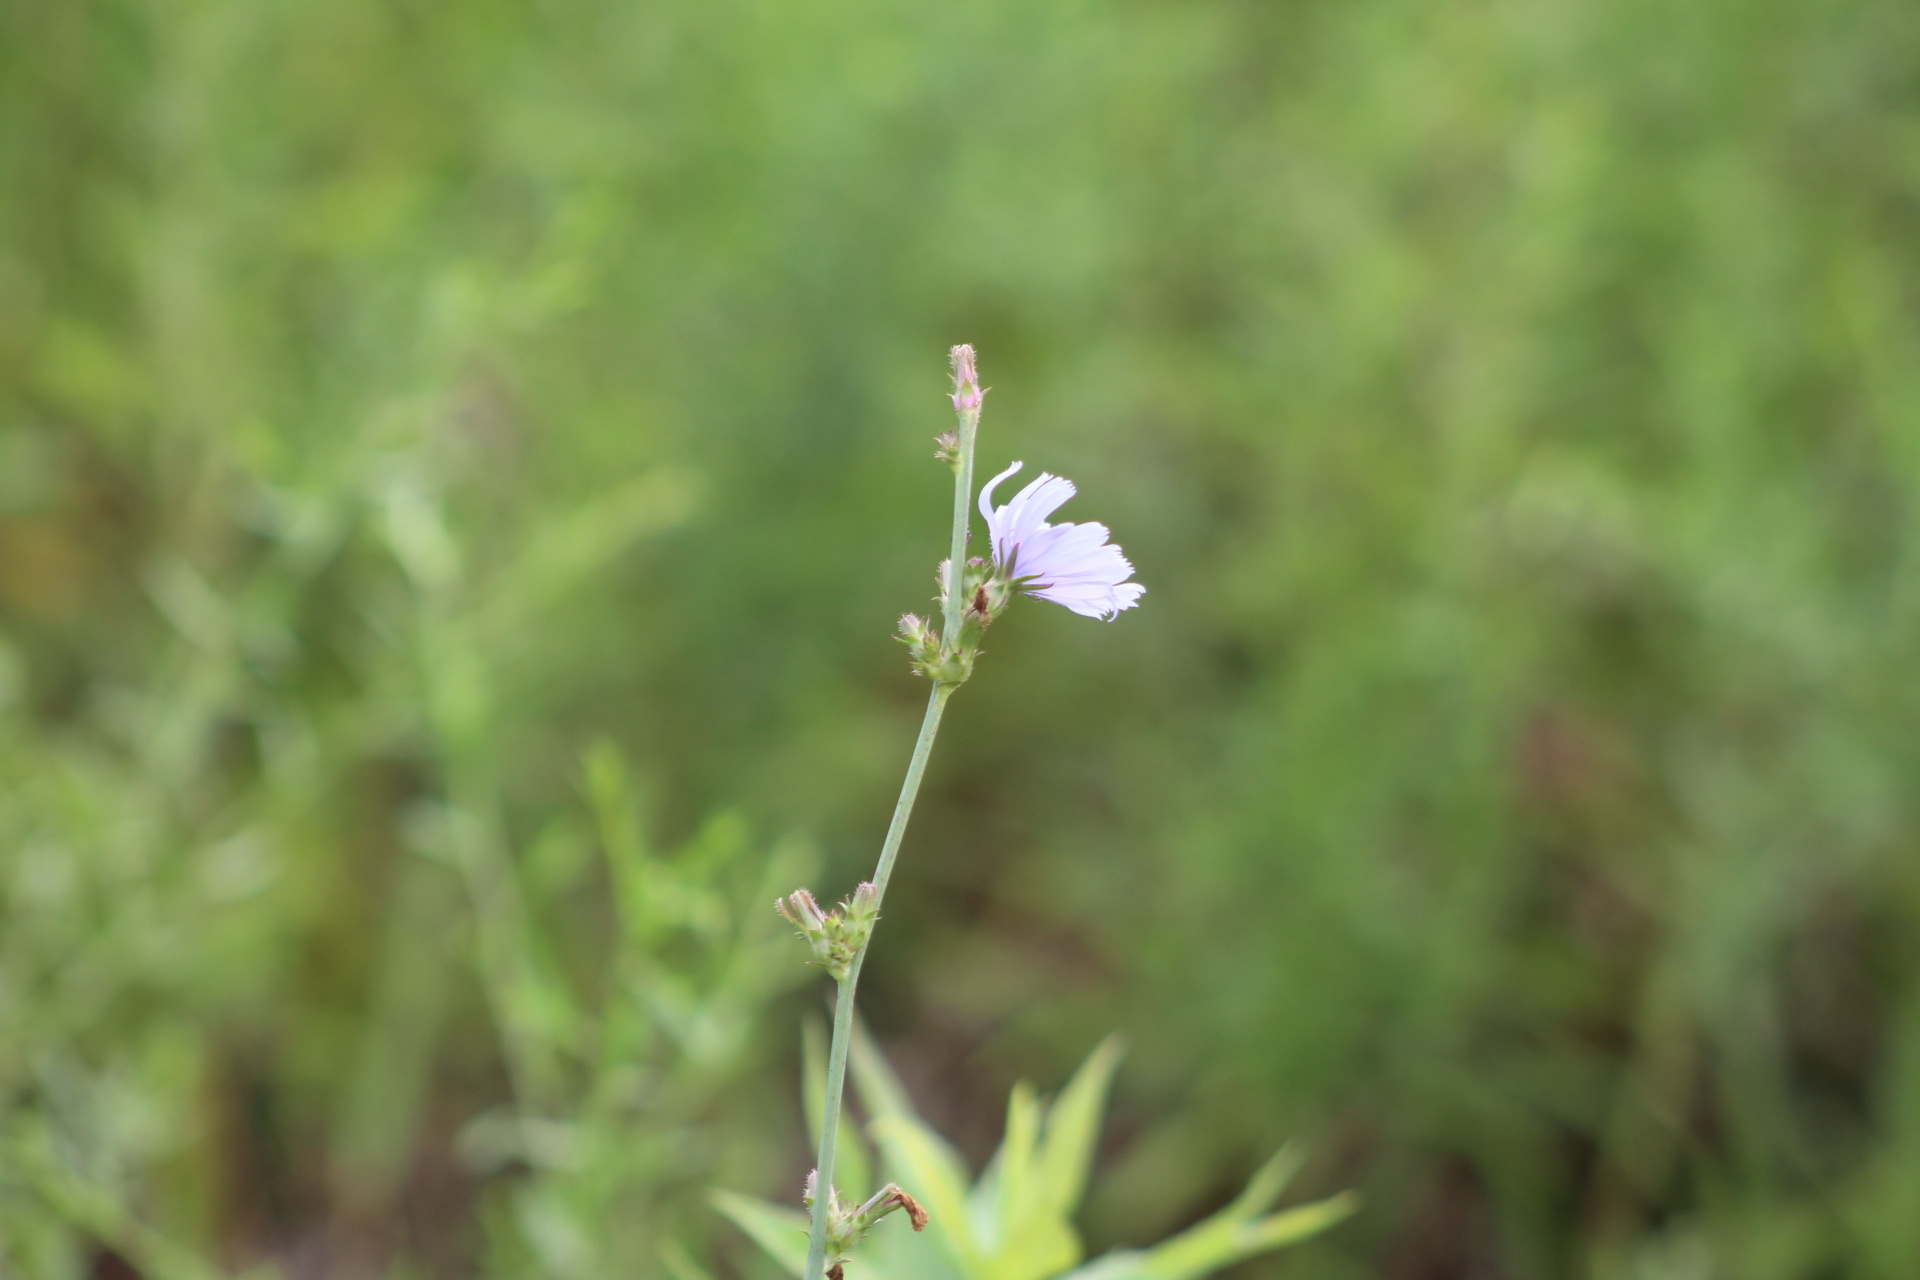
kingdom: Plantae
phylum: Tracheophyta
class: Magnoliopsida
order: Asterales
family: Asteraceae
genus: Cichorium
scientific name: Cichorium intybus
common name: Chicory
